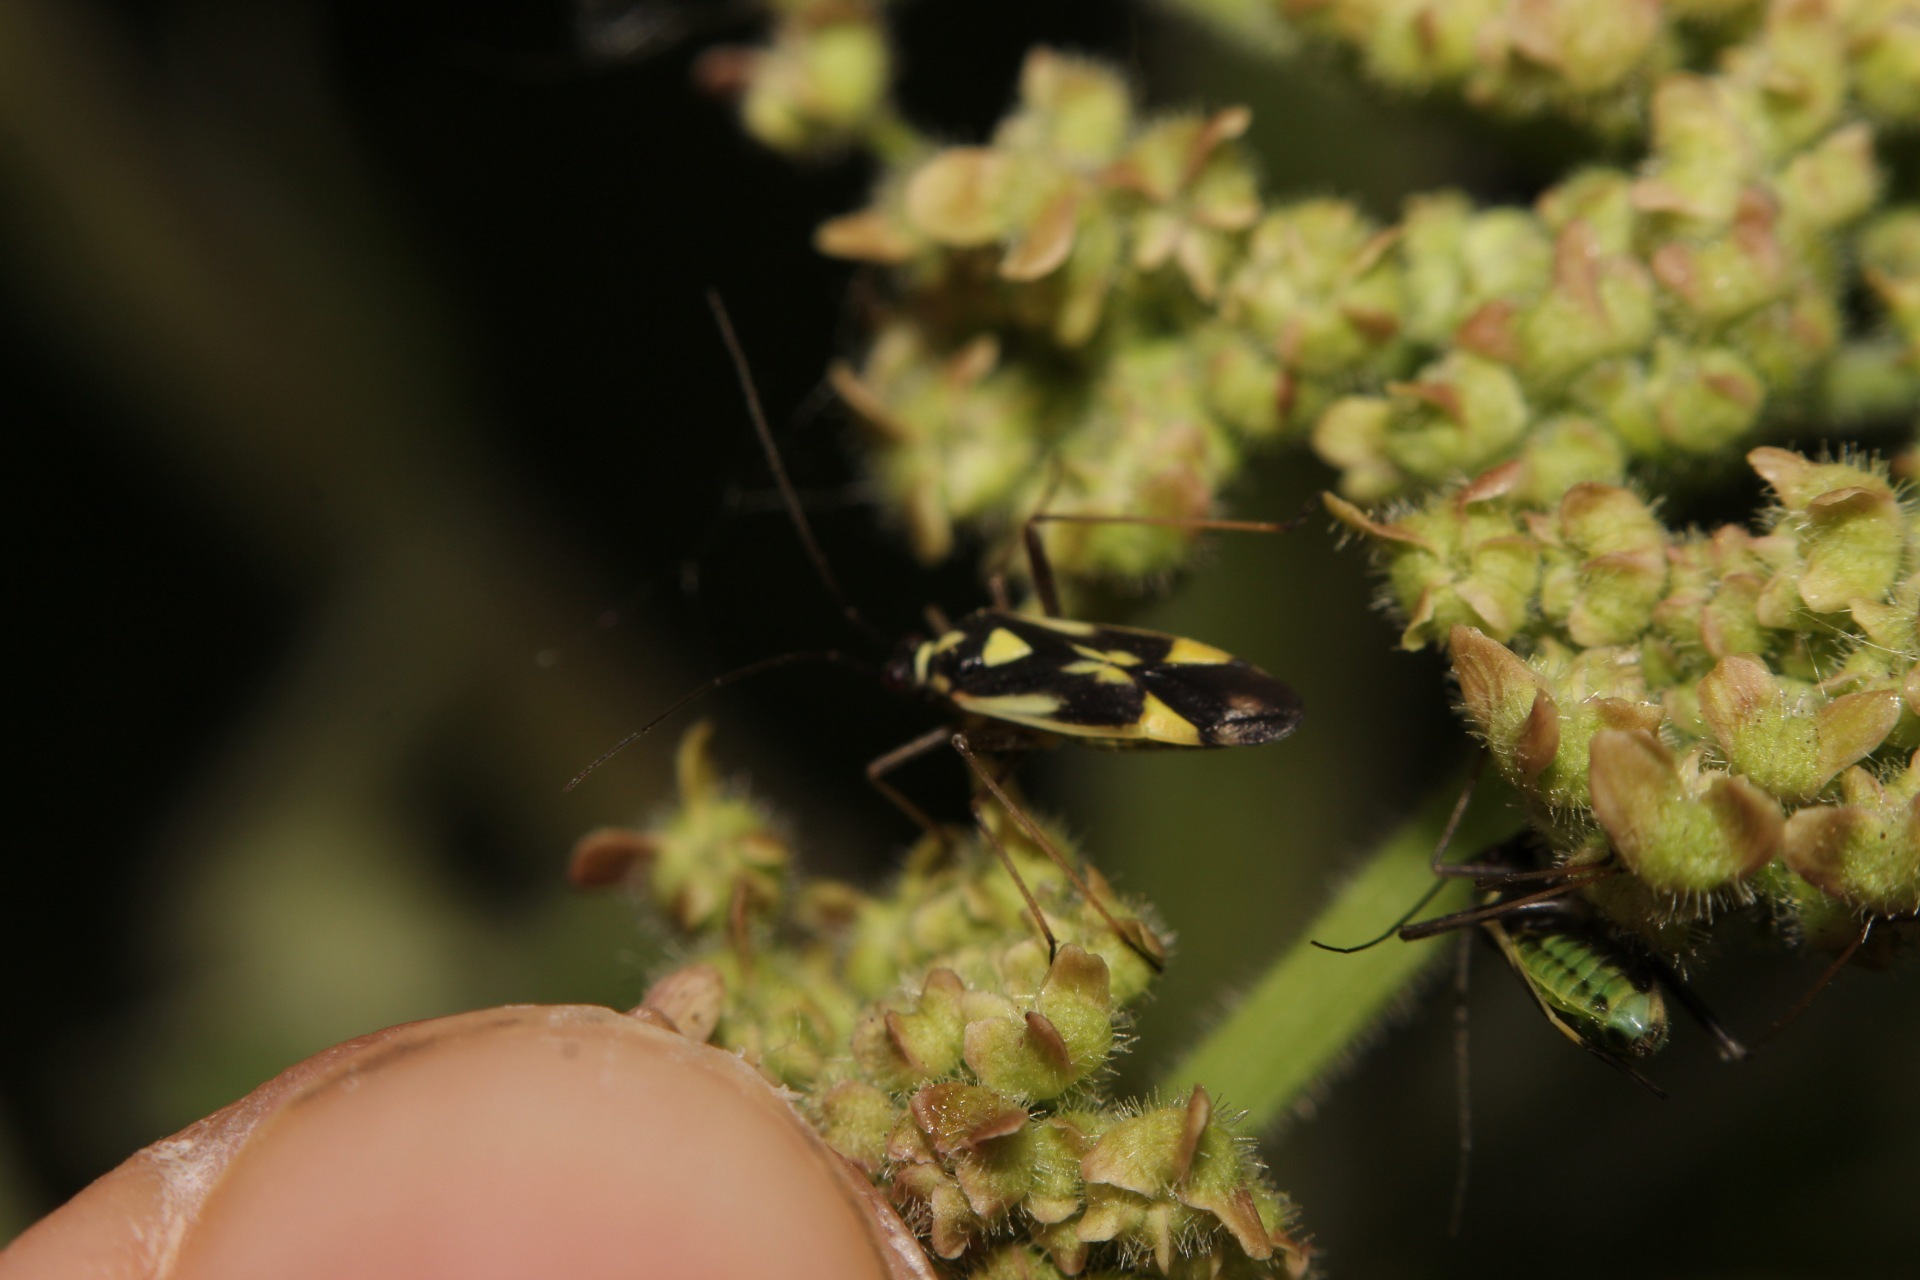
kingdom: Animalia
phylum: Arthropoda
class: Insecta
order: Hemiptera
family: Miridae
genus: Grypocoris
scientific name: Grypocoris stysi
